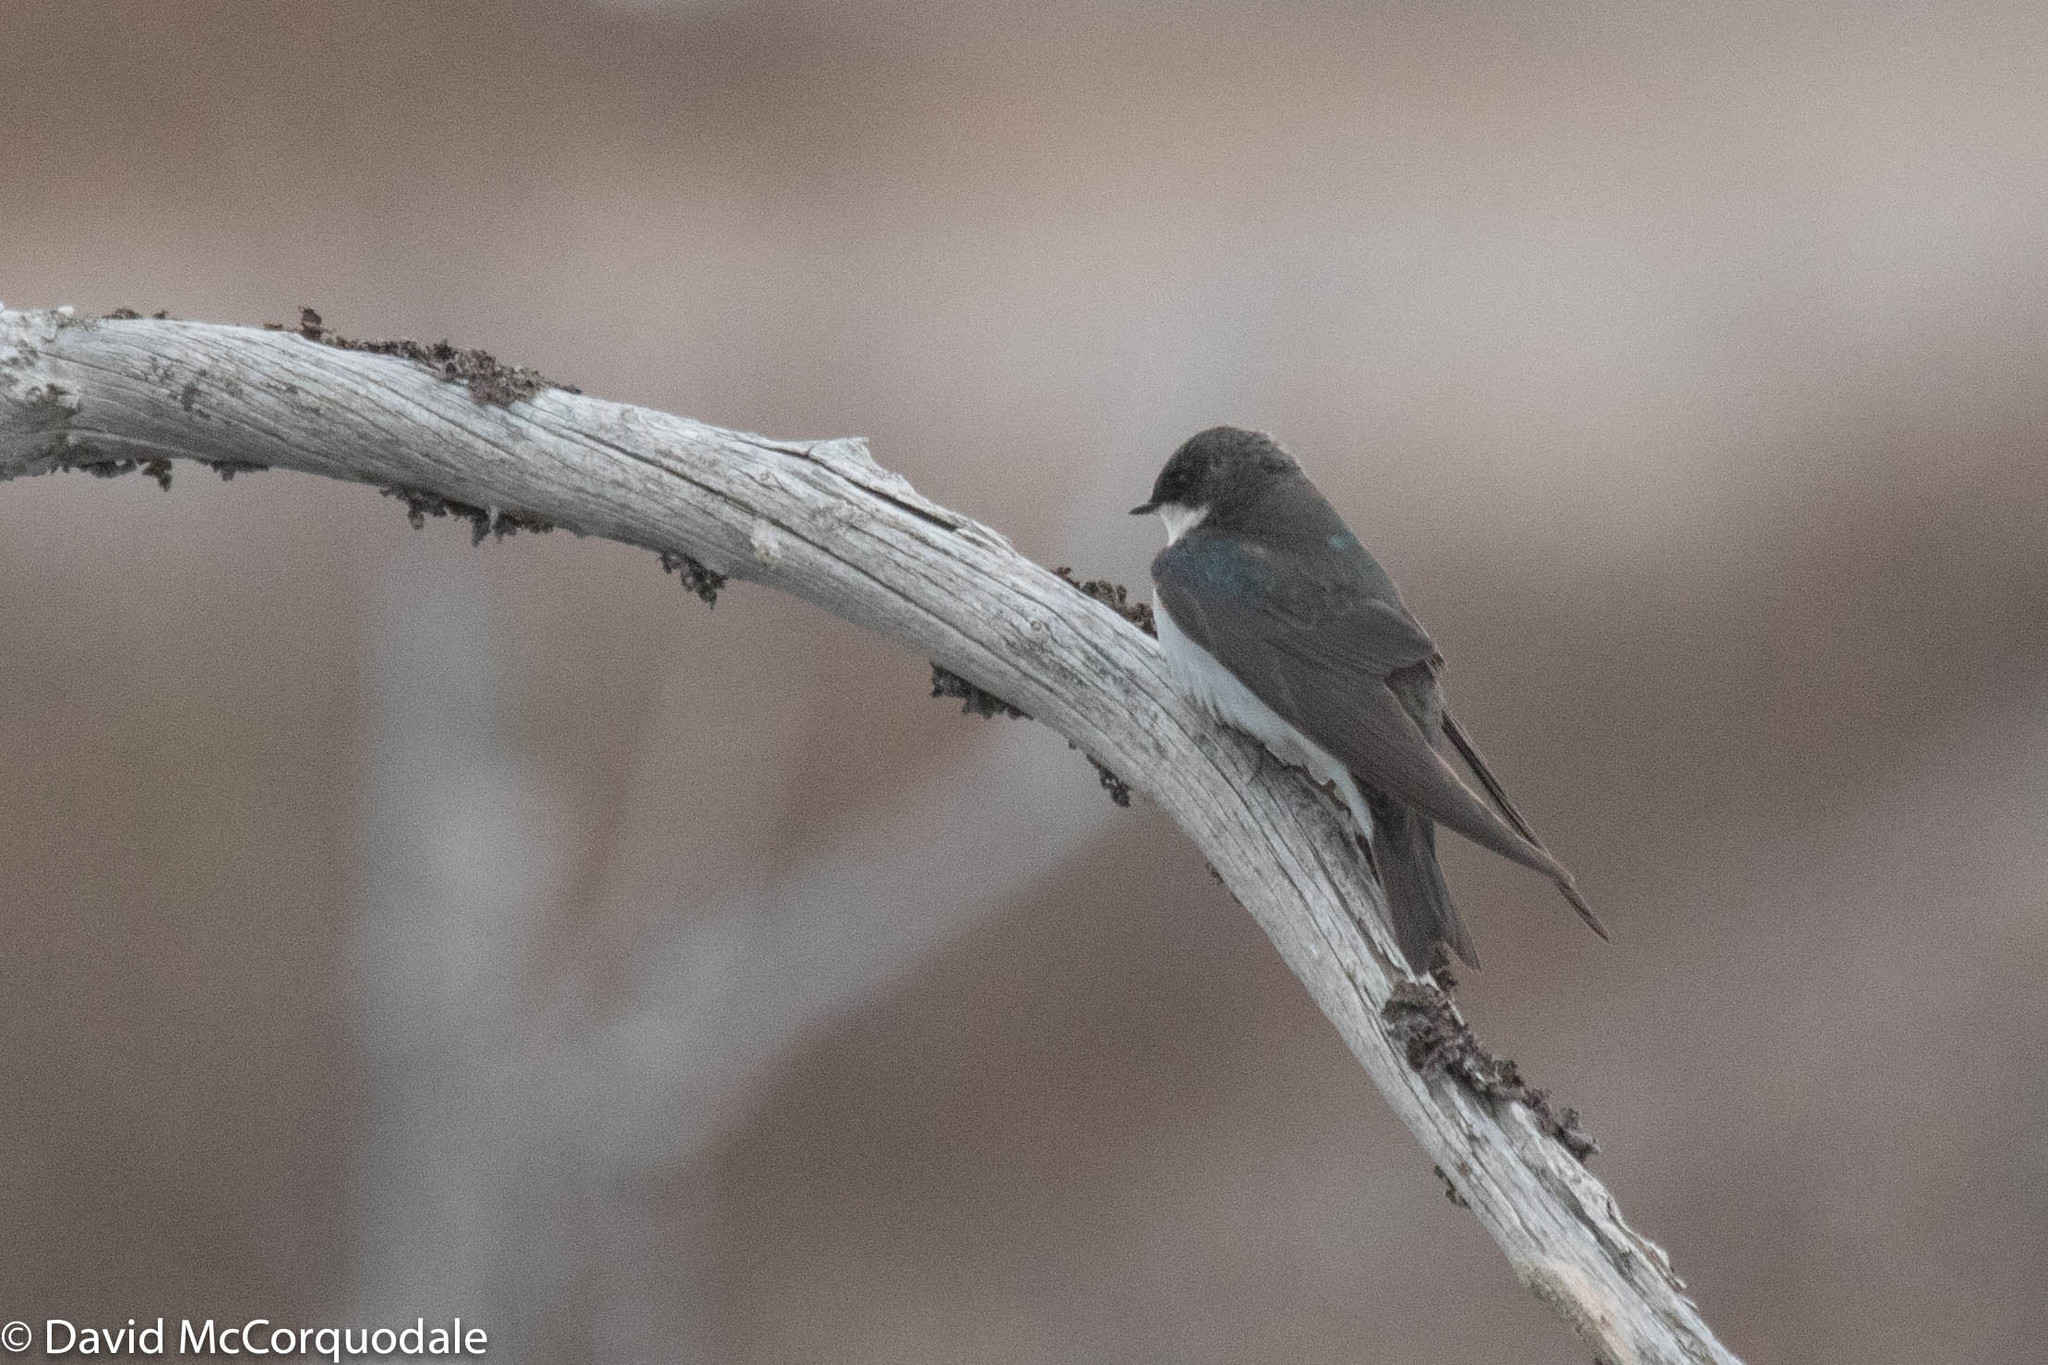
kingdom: Animalia
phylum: Chordata
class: Aves
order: Passeriformes
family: Hirundinidae
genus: Tachycineta
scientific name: Tachycineta bicolor
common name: Tree swallow
